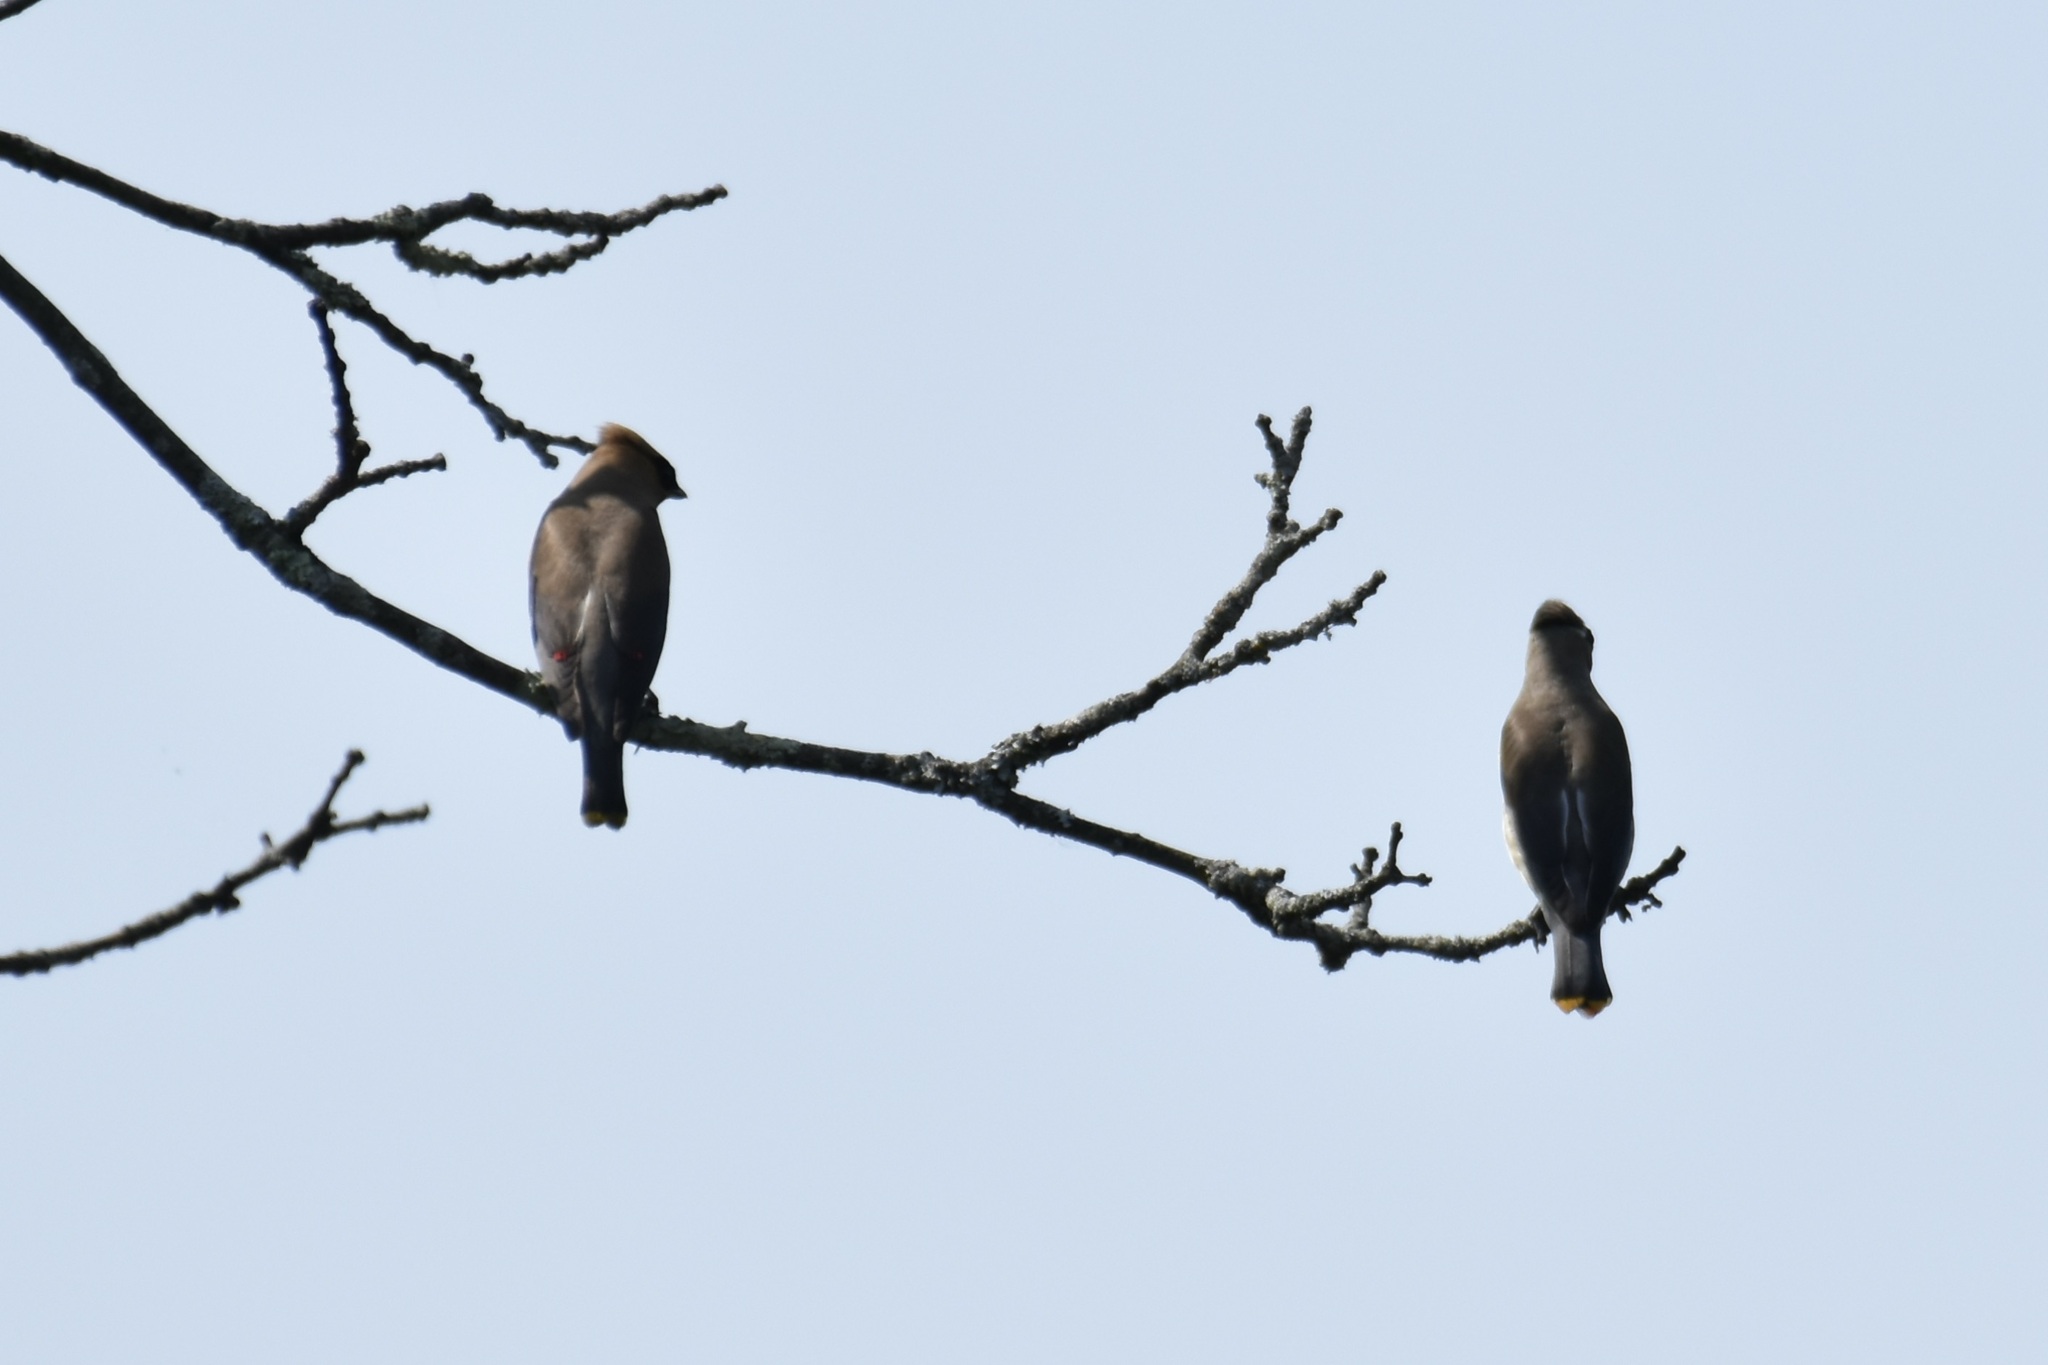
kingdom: Animalia
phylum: Chordata
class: Aves
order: Passeriformes
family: Bombycillidae
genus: Bombycilla
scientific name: Bombycilla cedrorum
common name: Cedar waxwing
